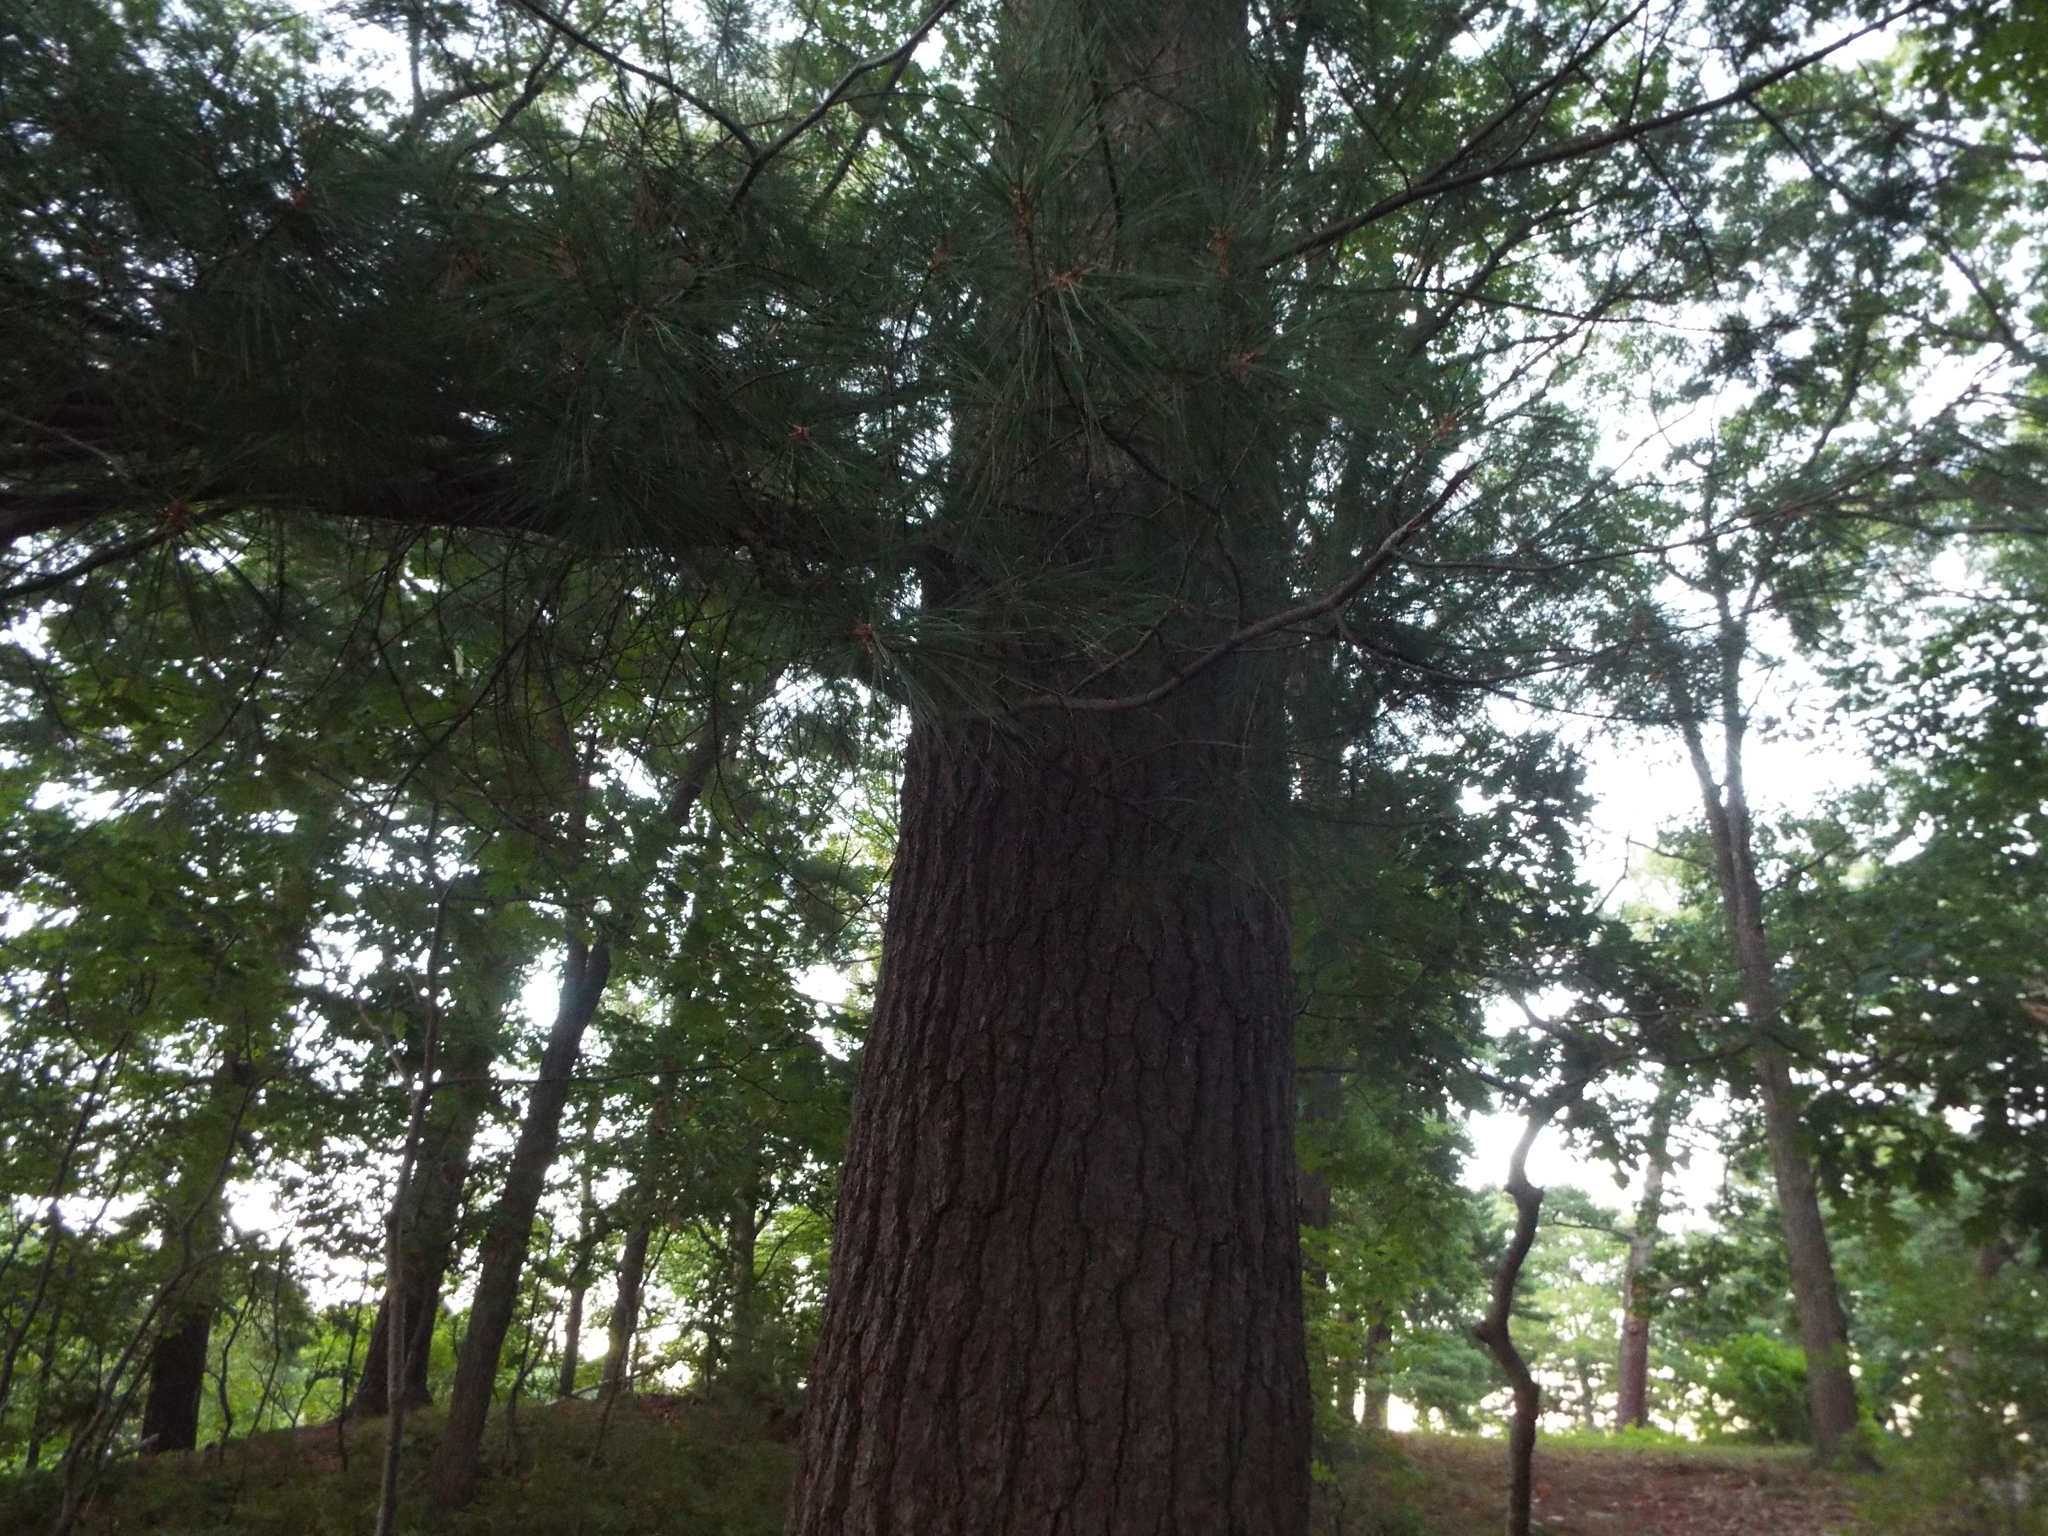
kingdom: Plantae
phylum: Tracheophyta
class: Pinopsida
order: Pinales
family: Pinaceae
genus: Pinus
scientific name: Pinus strobus
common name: Weymouth pine
